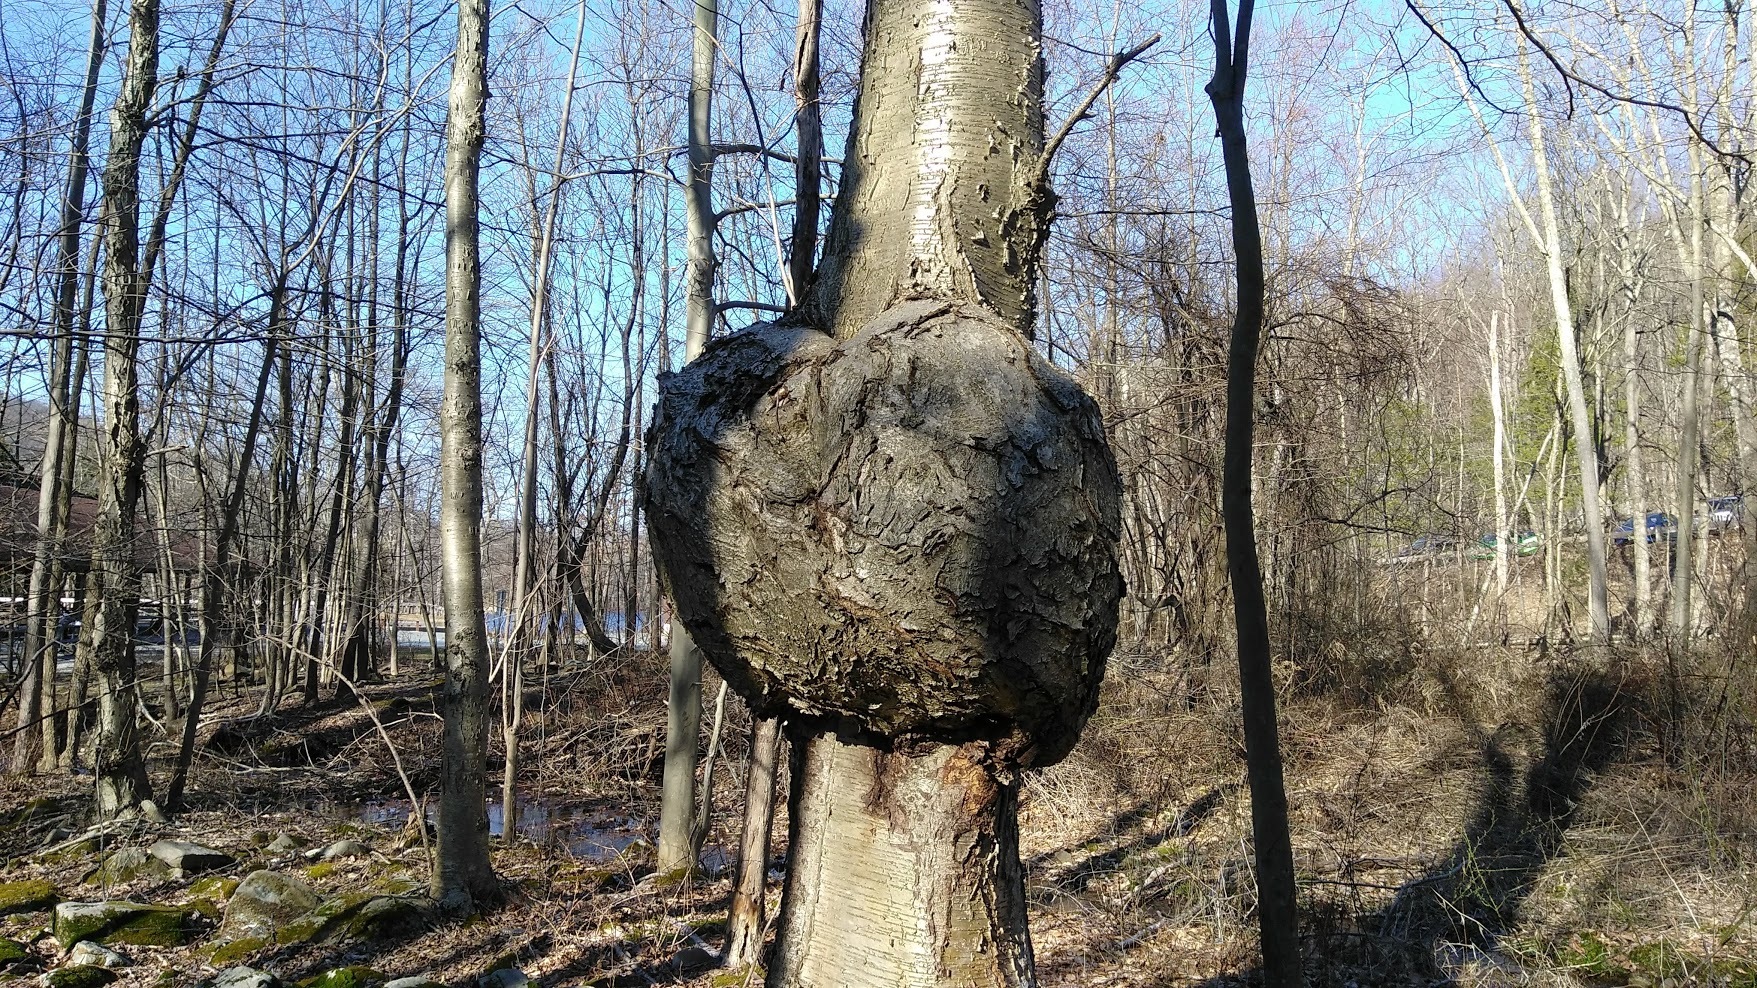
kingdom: Bacteria
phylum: Proteobacteria
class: Alphaproteobacteria
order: Rhizobiales
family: Rhizobiaceae
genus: Rhizobium
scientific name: Rhizobium Agrobacterium radiobacter
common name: Bacterial crown gall
